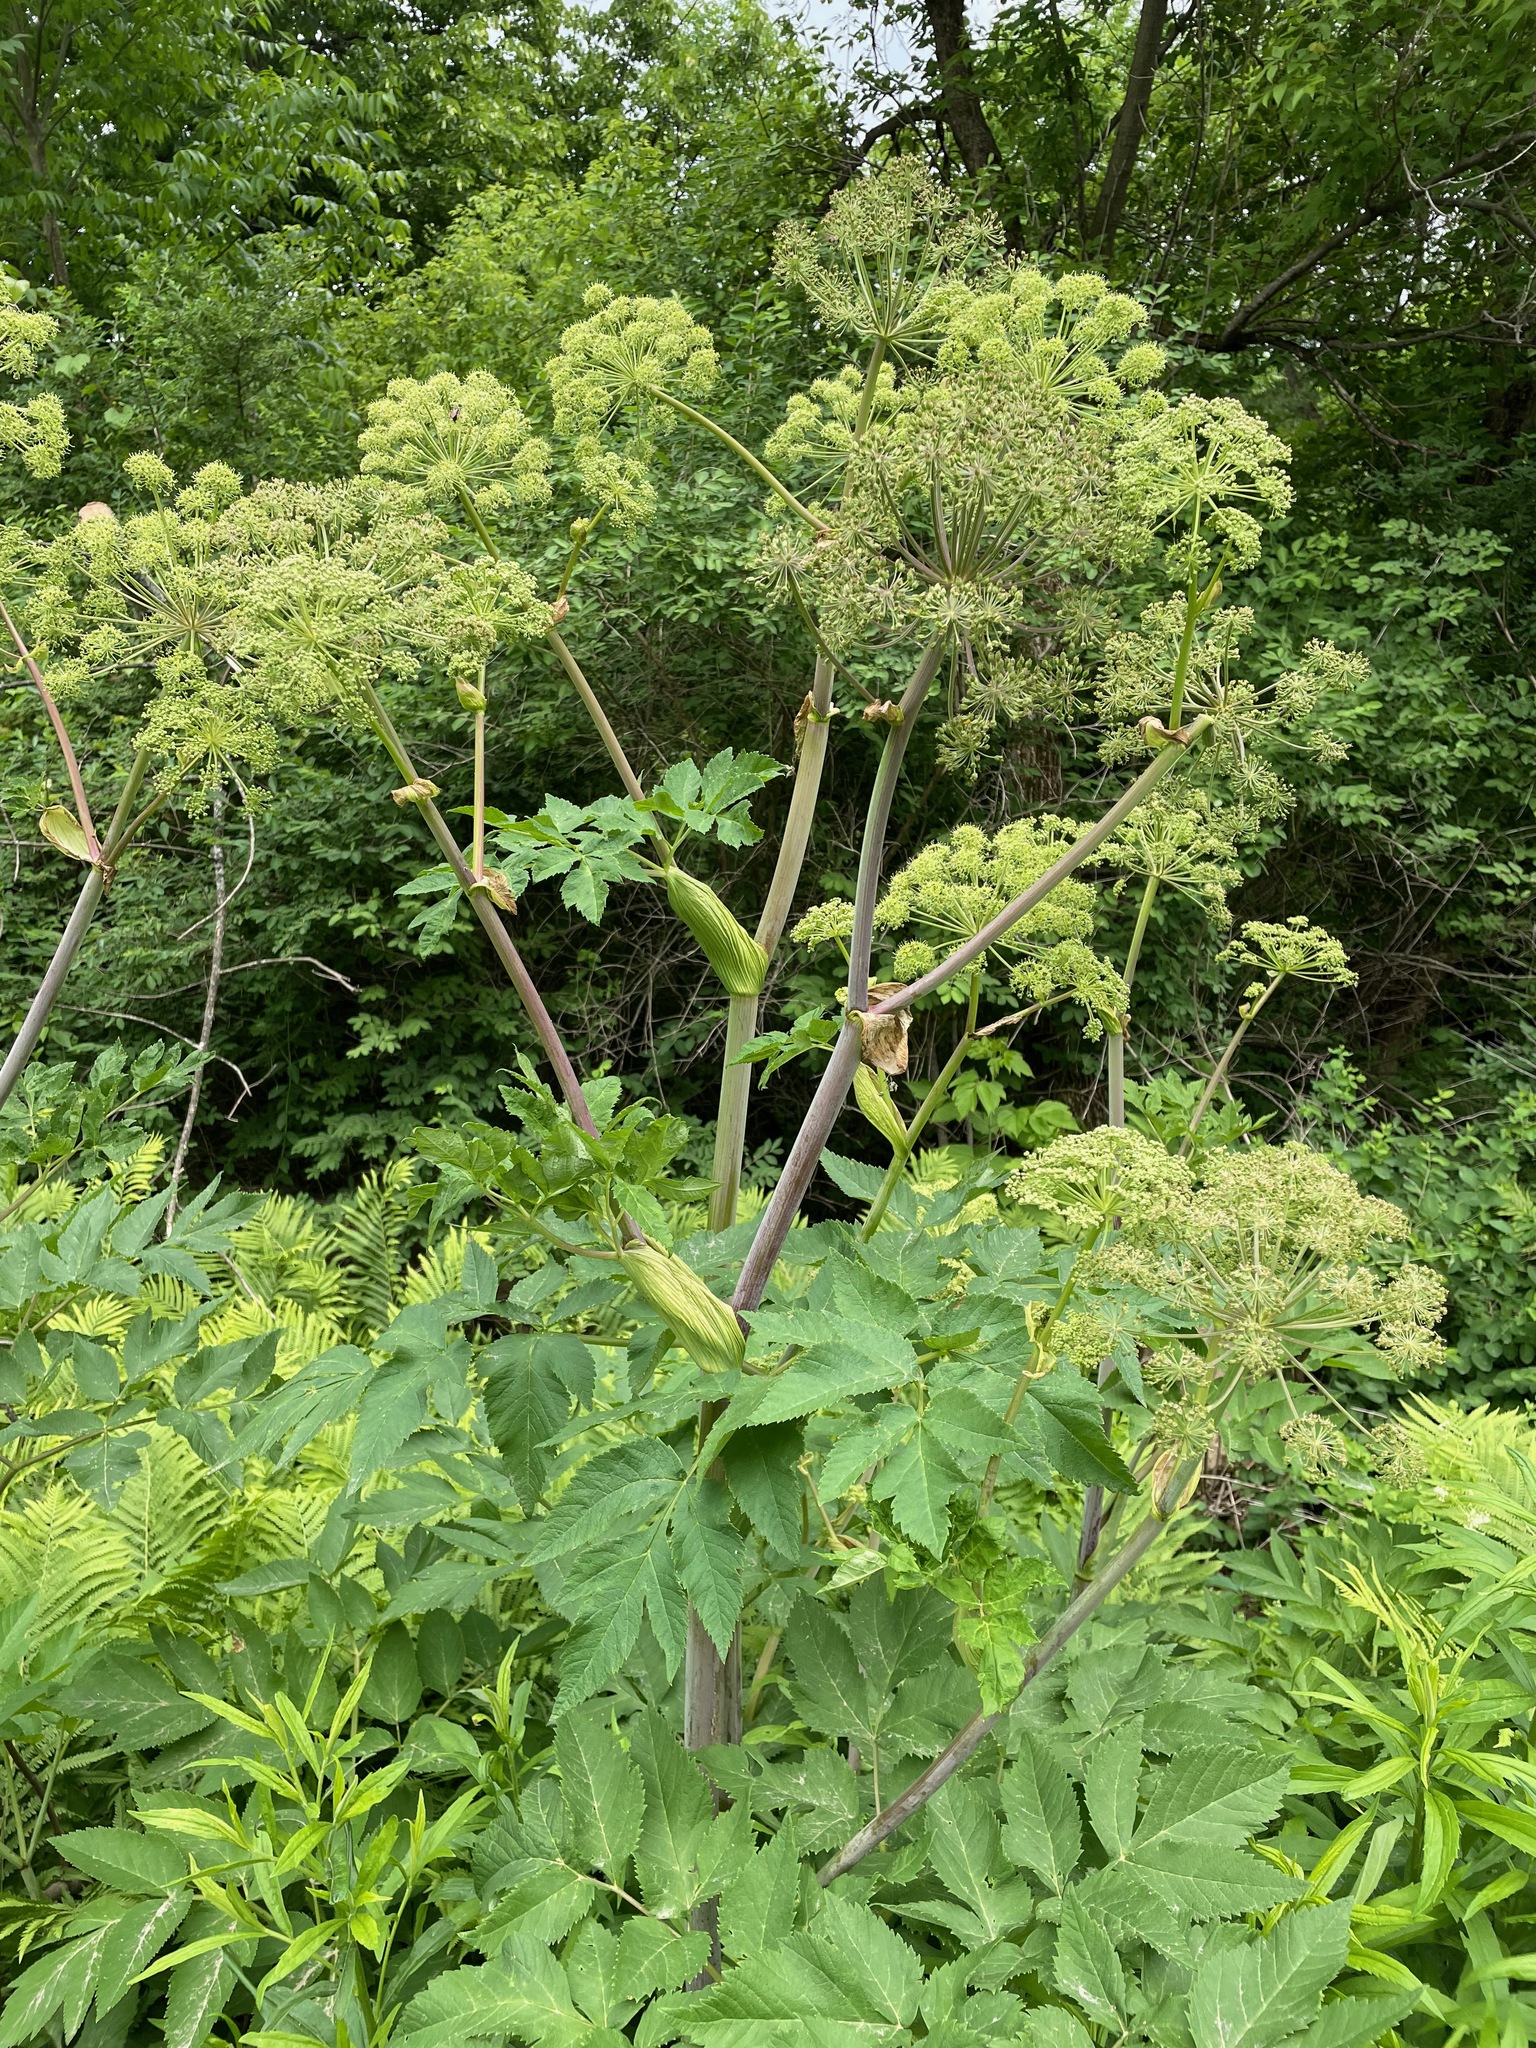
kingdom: Plantae
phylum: Tracheophyta
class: Magnoliopsida
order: Apiales
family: Apiaceae
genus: Angelica
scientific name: Angelica atropurpurea
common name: Great angelica
